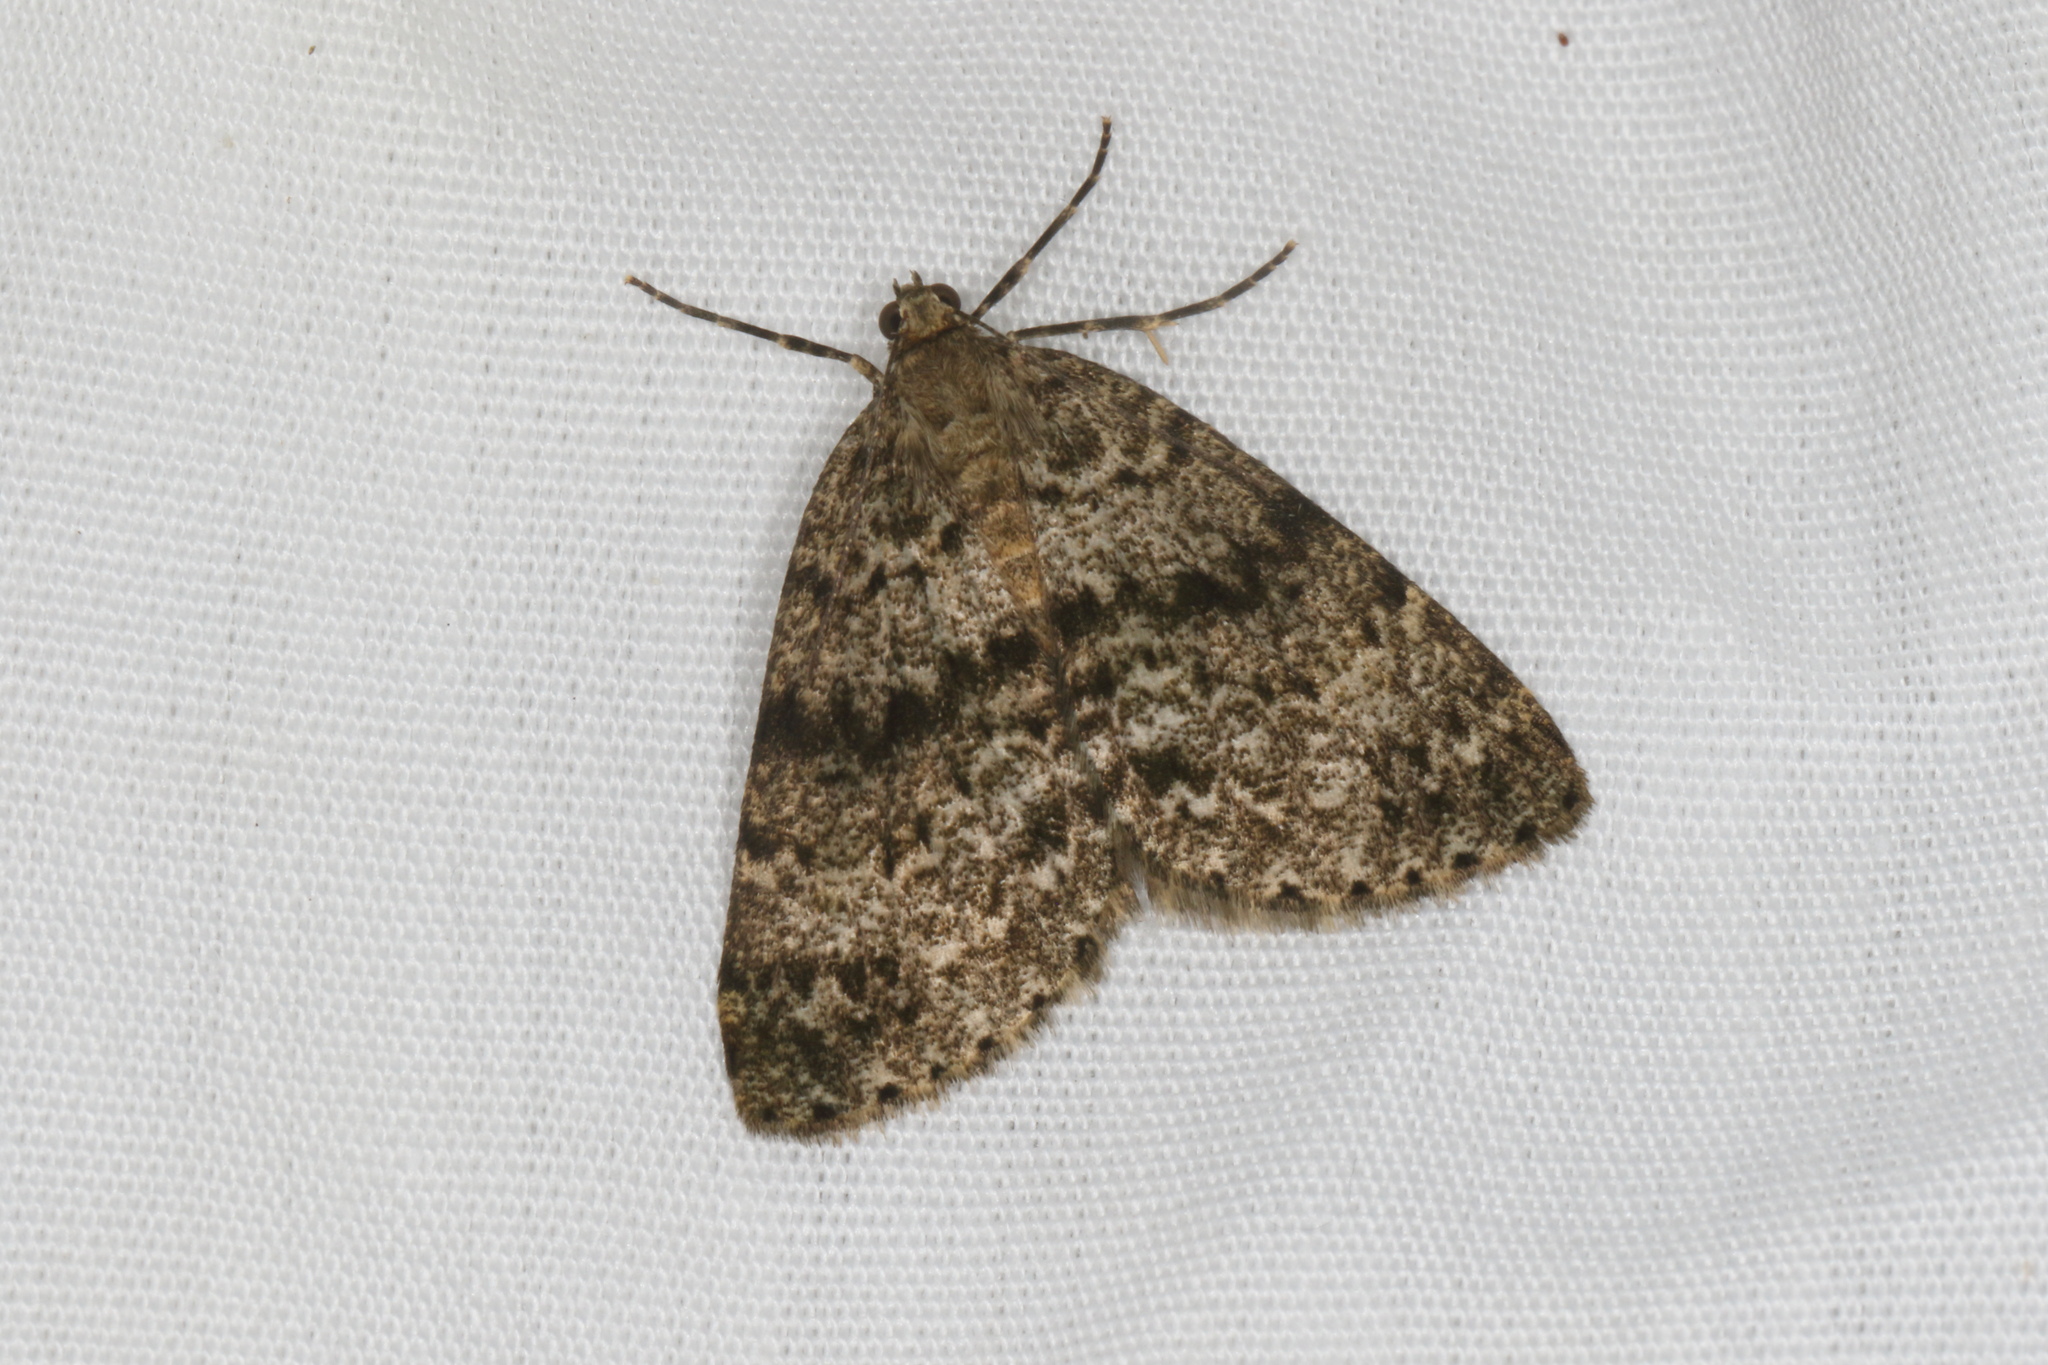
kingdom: Animalia
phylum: Arthropoda
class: Insecta
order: Lepidoptera
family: Geometridae
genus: Pseudocoremia
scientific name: Pseudocoremia indistincta
